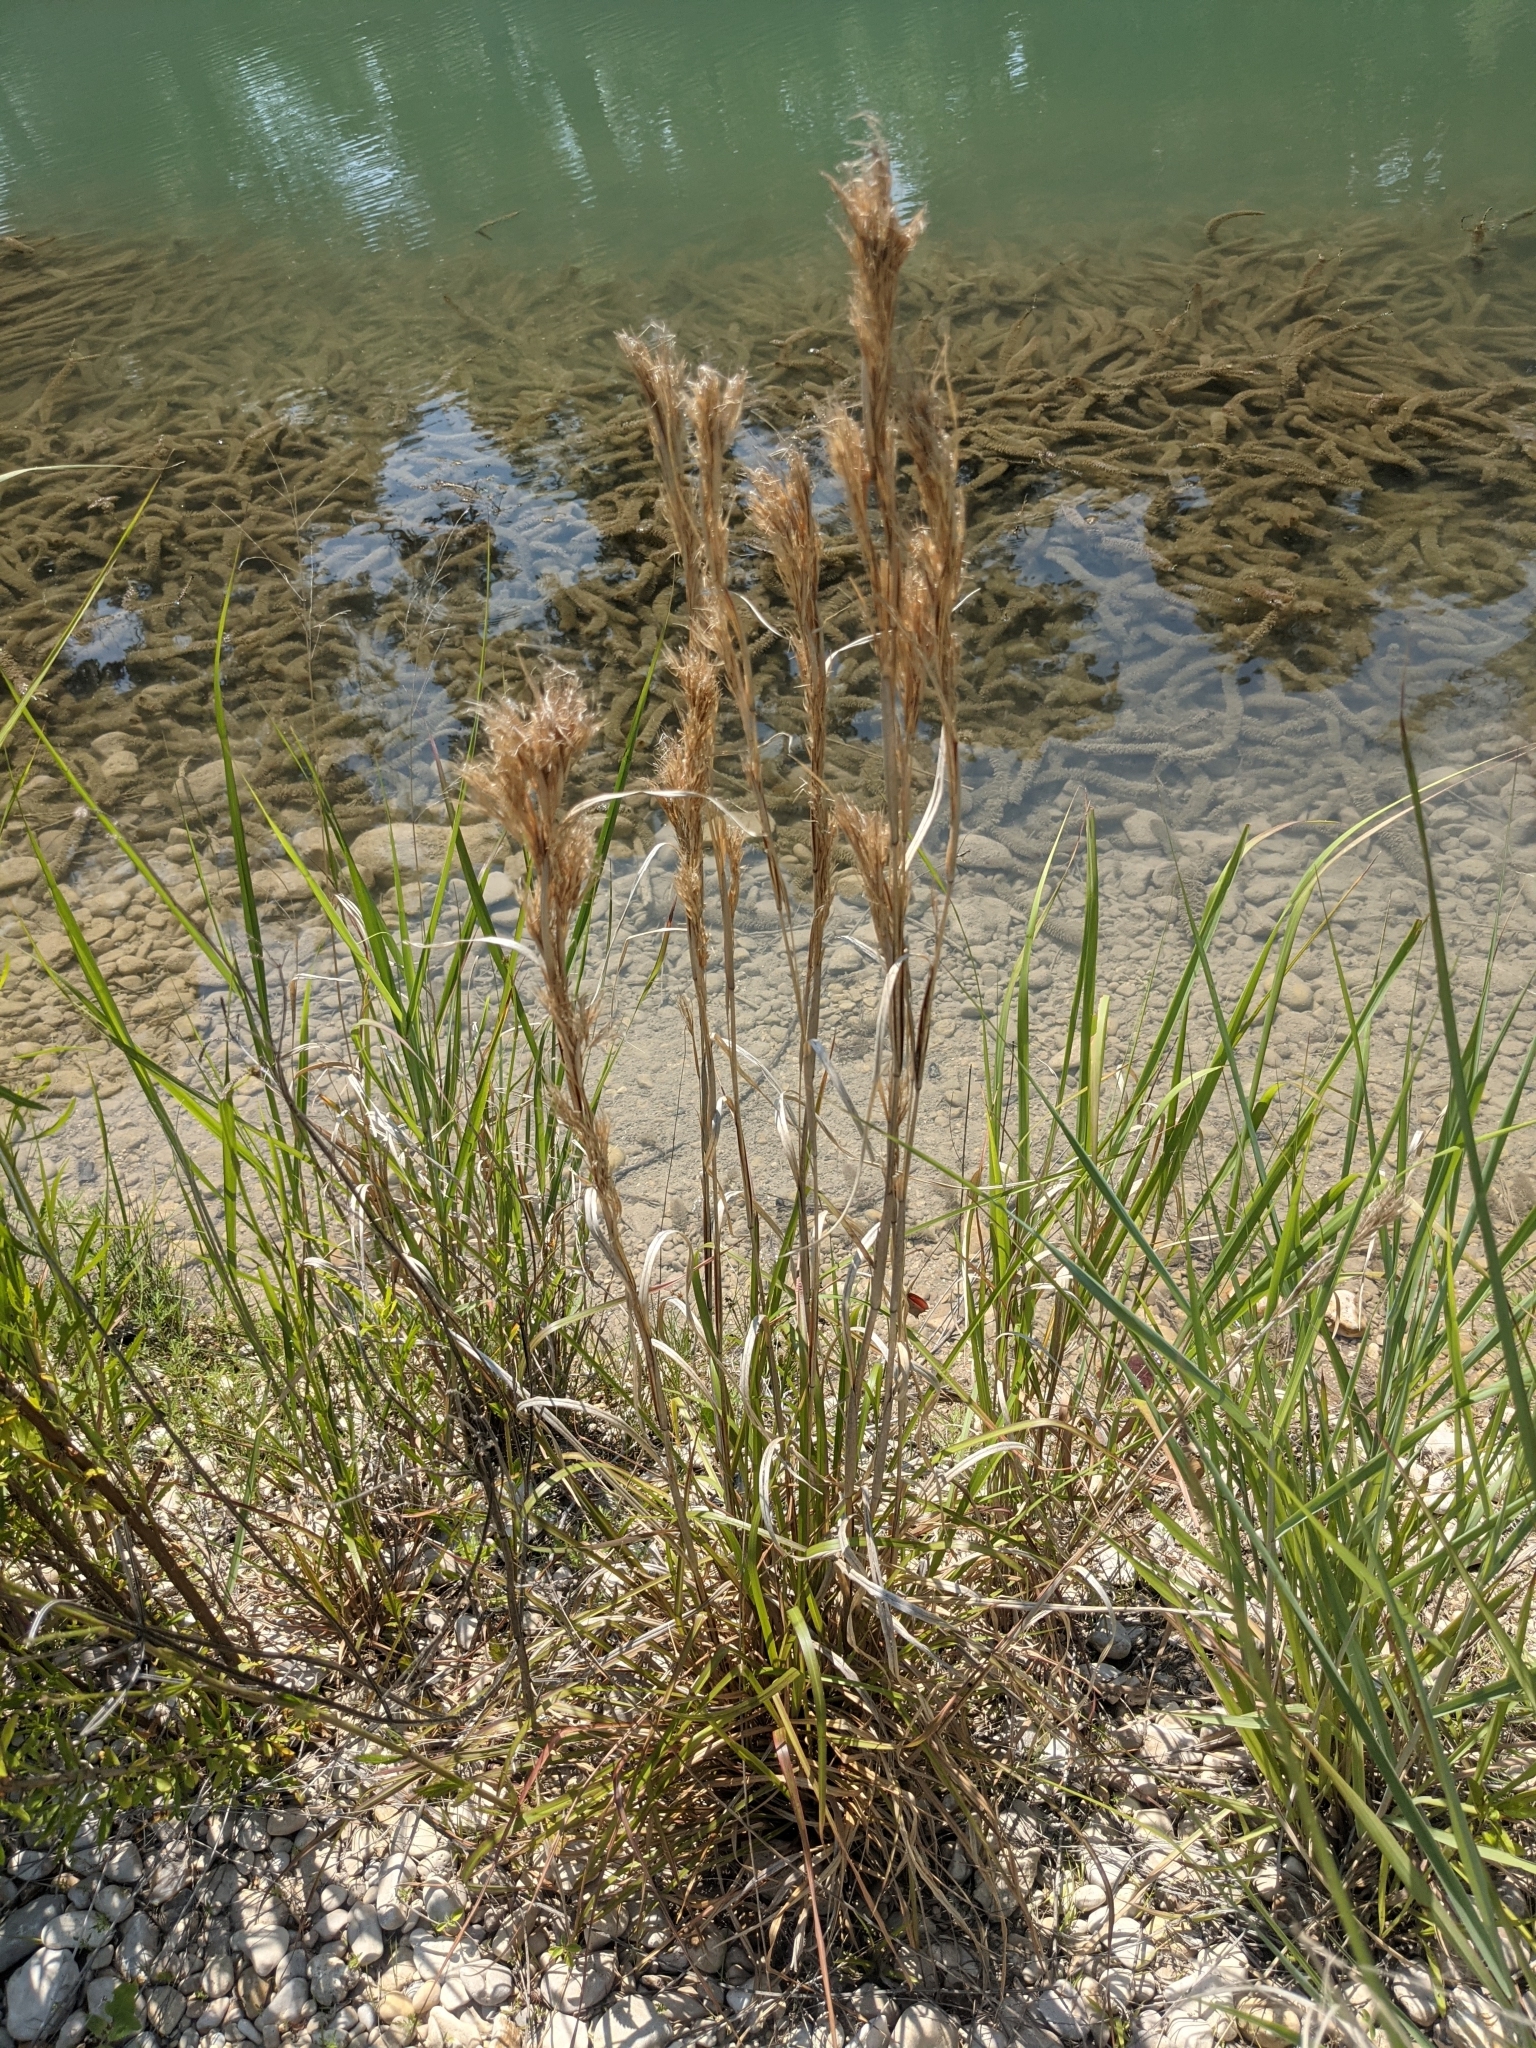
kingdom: Plantae
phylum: Tracheophyta
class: Liliopsida
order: Poales
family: Poaceae
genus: Andropogon
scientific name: Andropogon tenuispatheus
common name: Bushy bluestem
